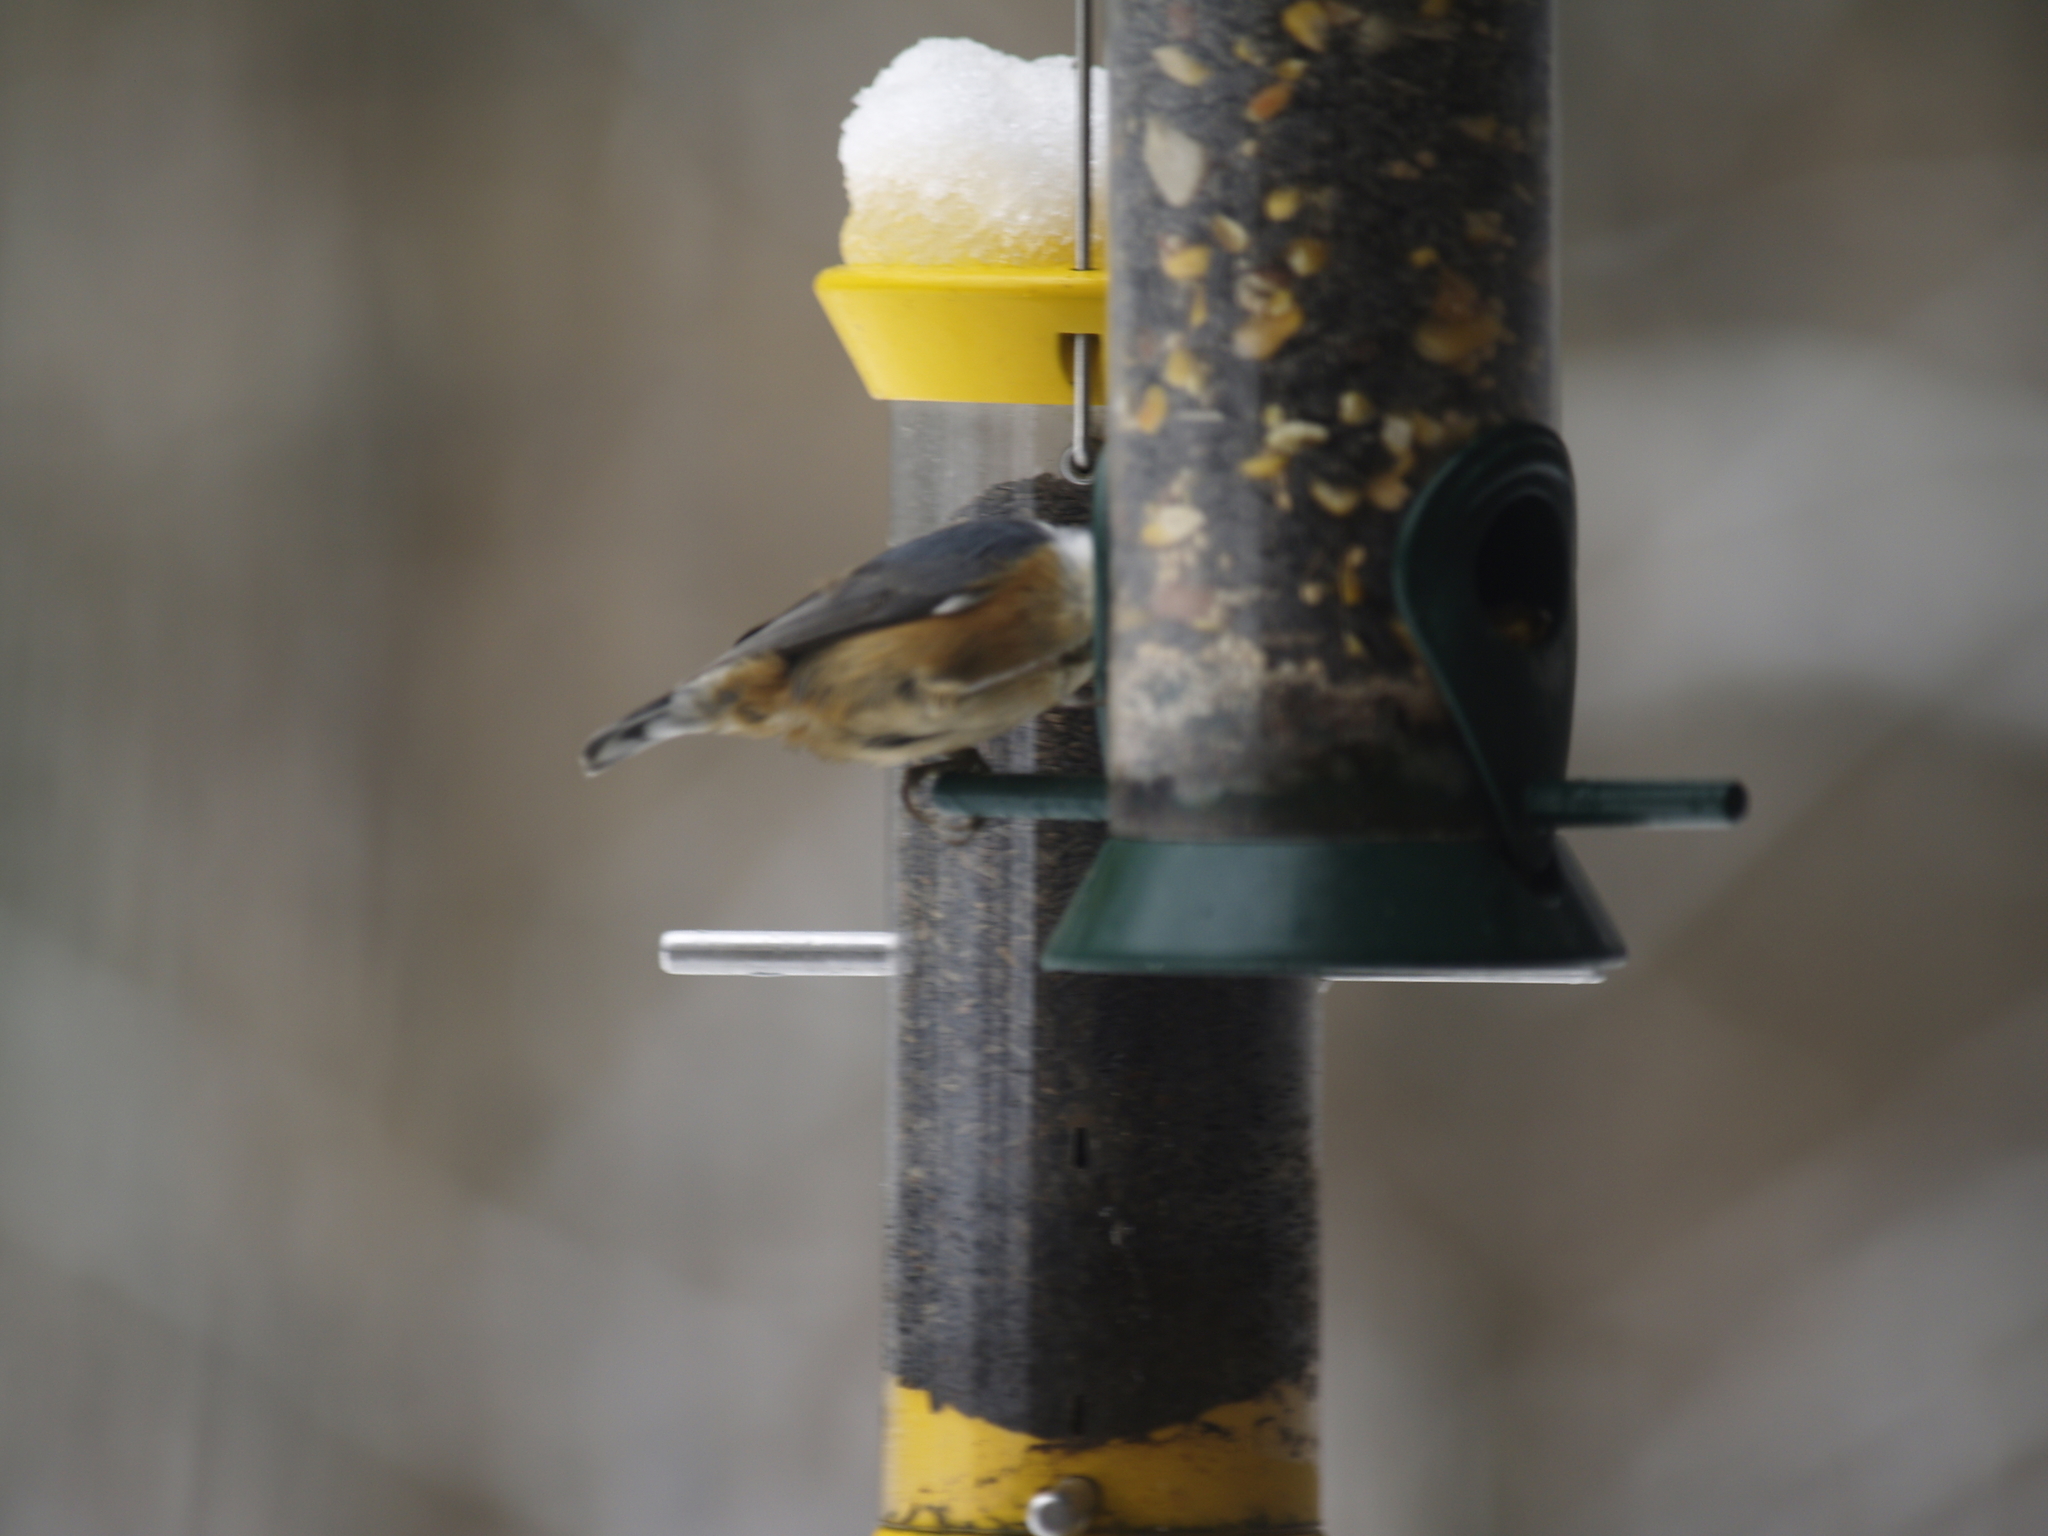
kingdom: Animalia
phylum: Chordata
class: Aves
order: Passeriformes
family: Sittidae
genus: Sitta
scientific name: Sitta canadensis
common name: Red-breasted nuthatch
